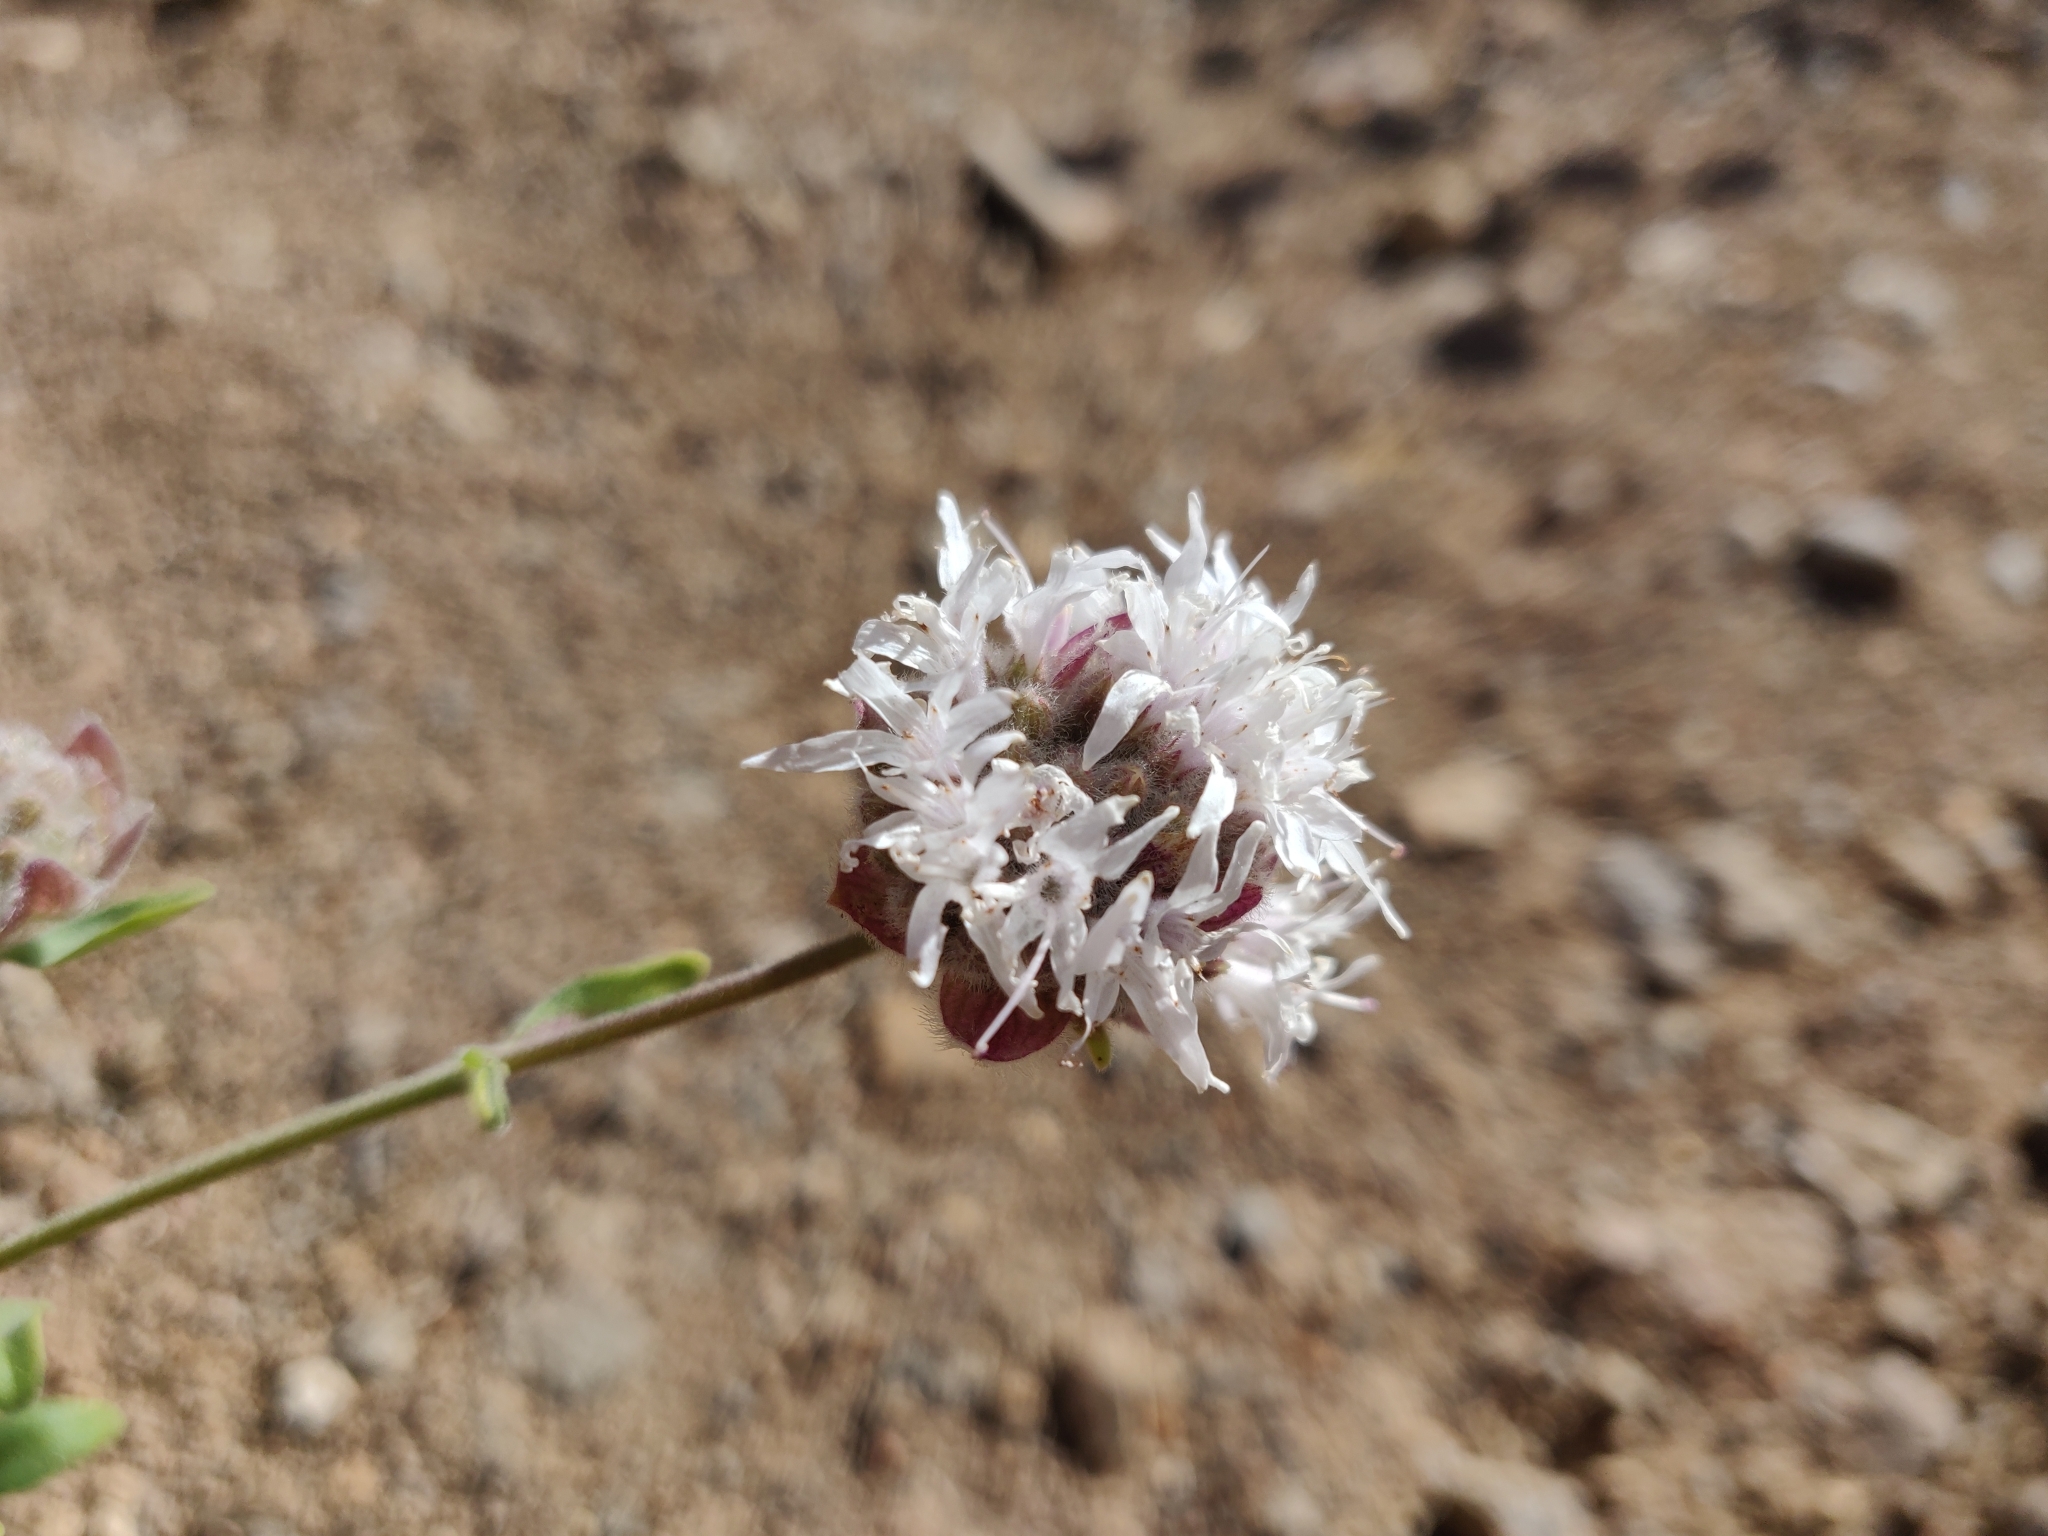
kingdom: Plantae
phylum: Tracheophyta
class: Magnoliopsida
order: Lamiales
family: Lamiaceae
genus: Monardella
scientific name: Monardella odoratissima
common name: Pacific monardella
